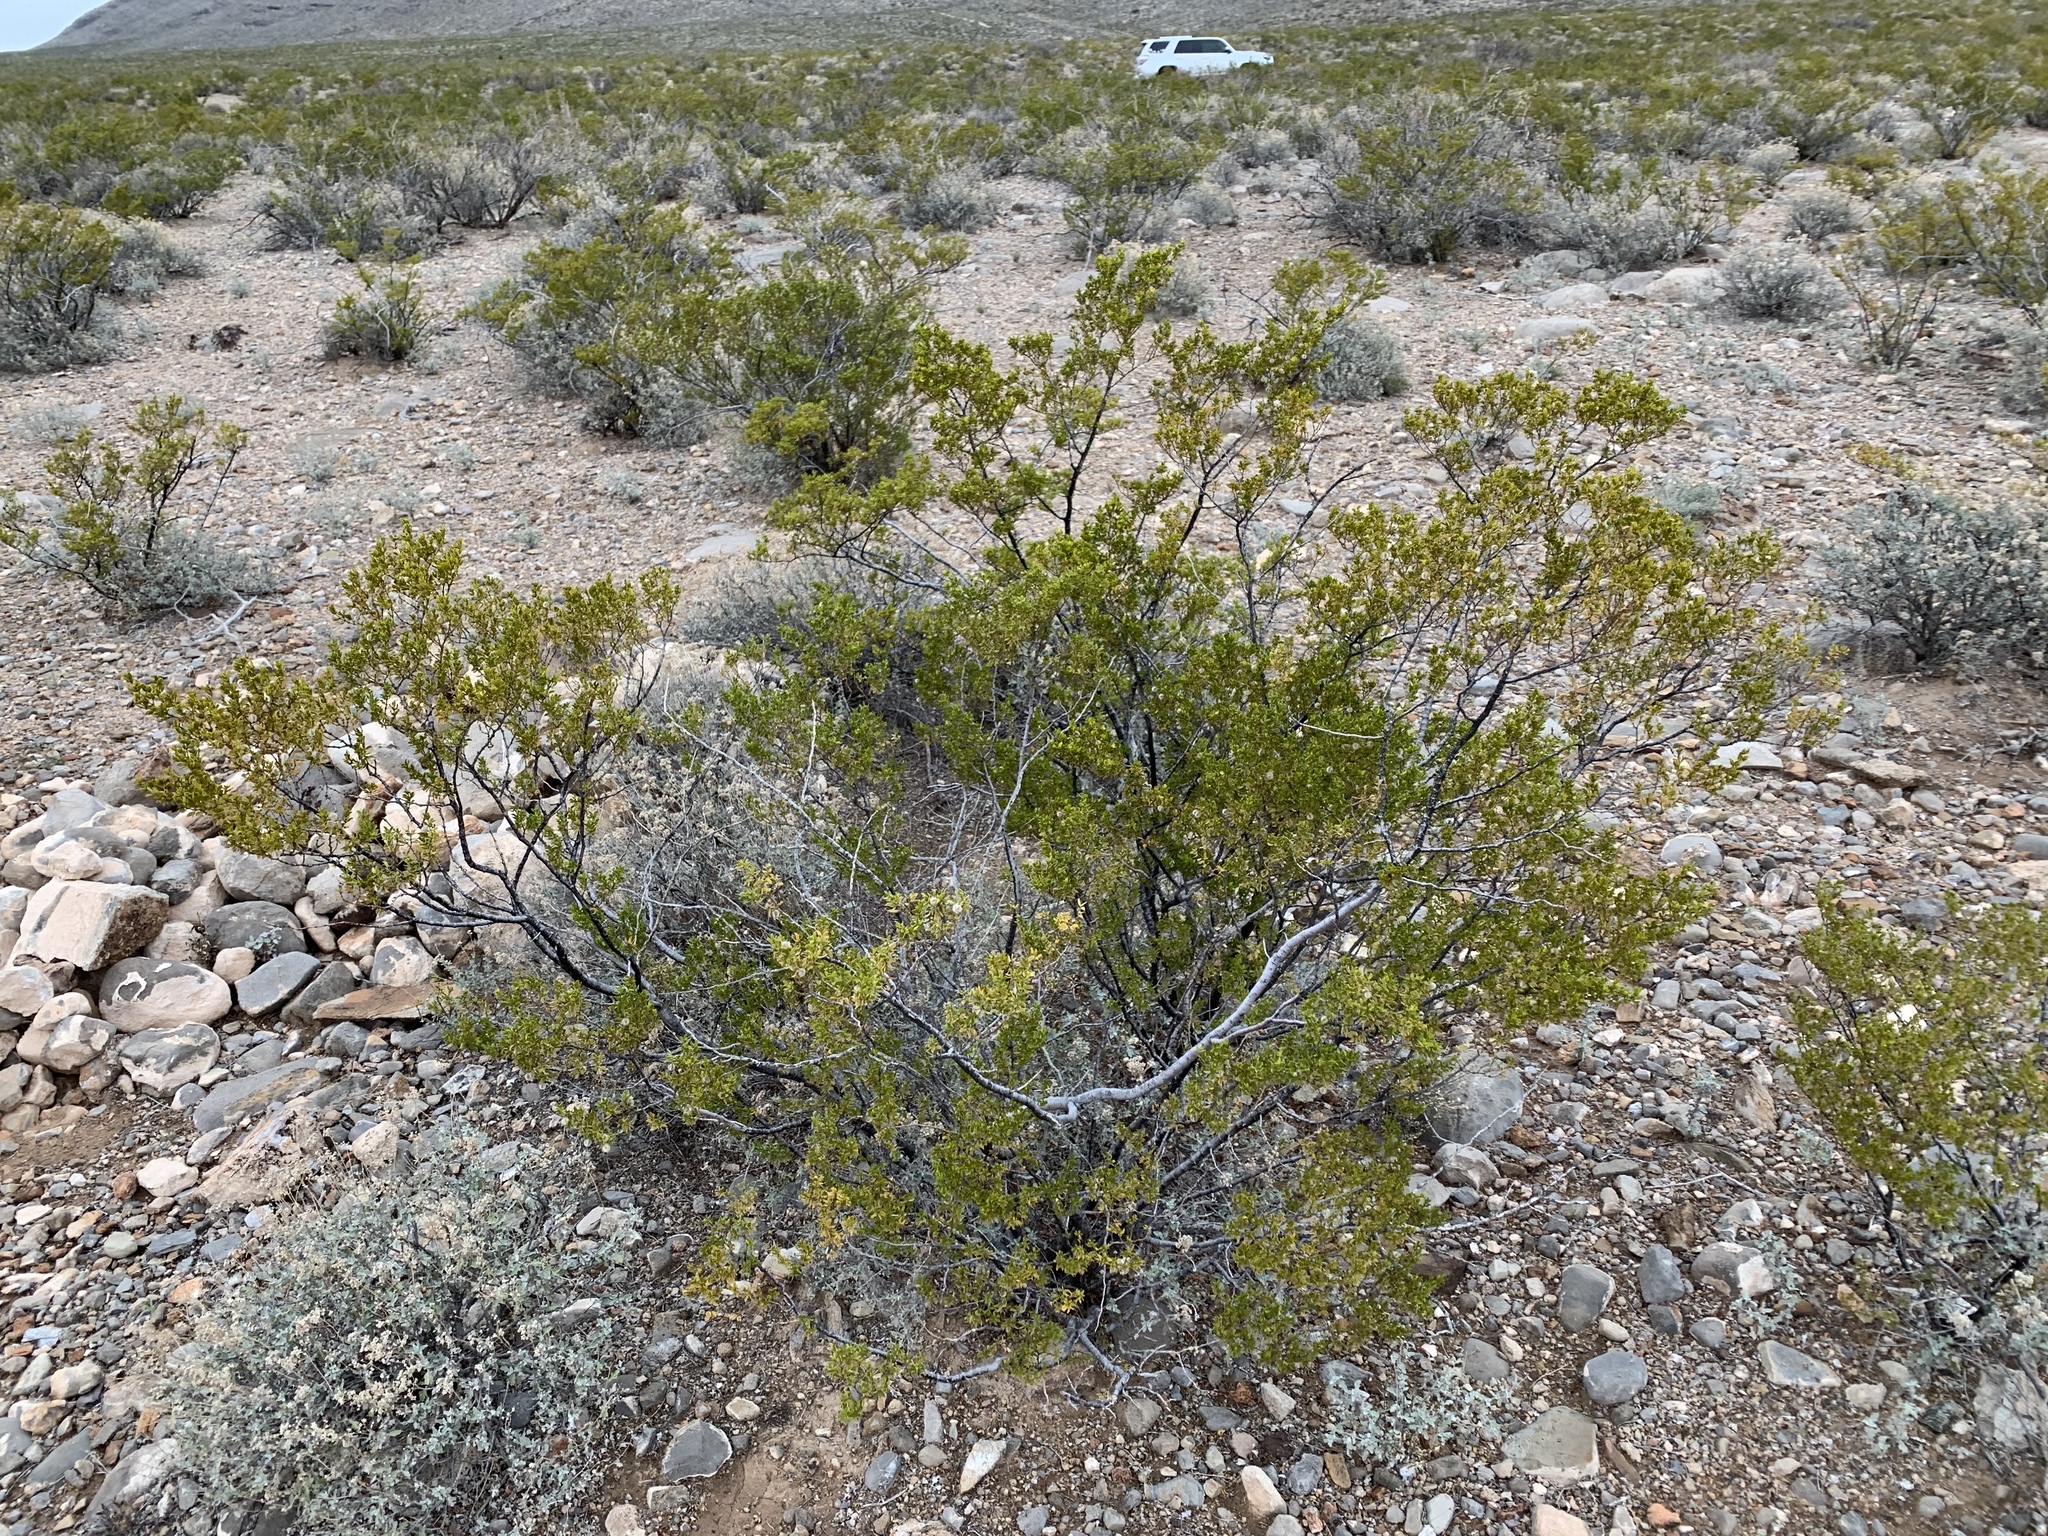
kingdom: Plantae
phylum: Tracheophyta
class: Magnoliopsida
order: Zygophyllales
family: Zygophyllaceae
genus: Larrea
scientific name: Larrea tridentata
